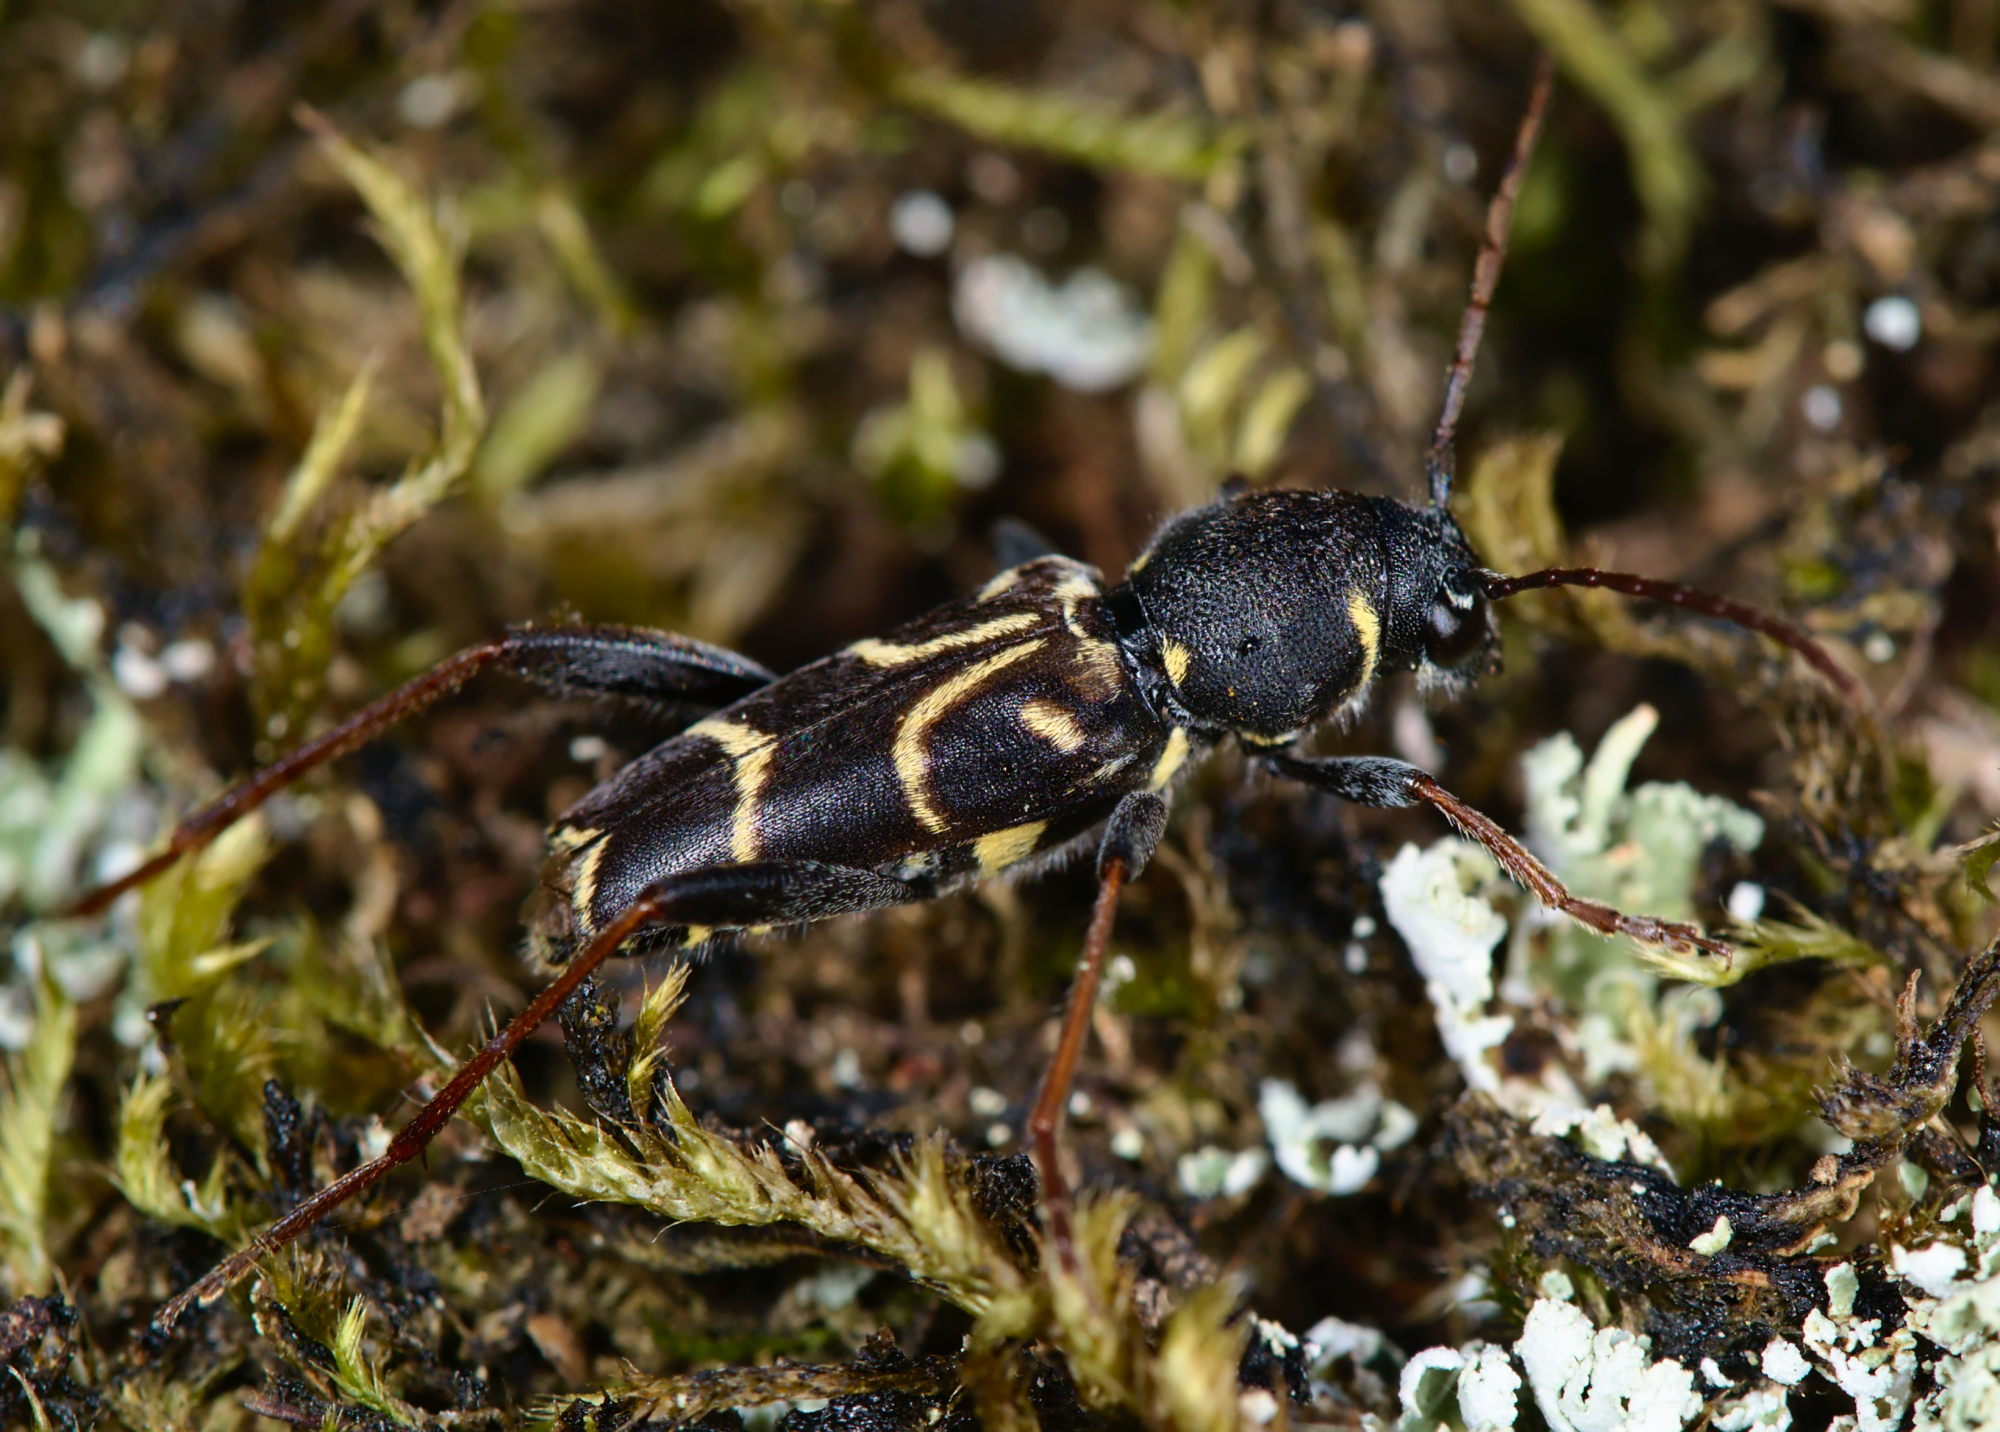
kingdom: Animalia
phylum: Arthropoda
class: Insecta
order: Coleoptera
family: Cerambycidae
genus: Xylotrechus
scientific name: Xylotrechus antilope
